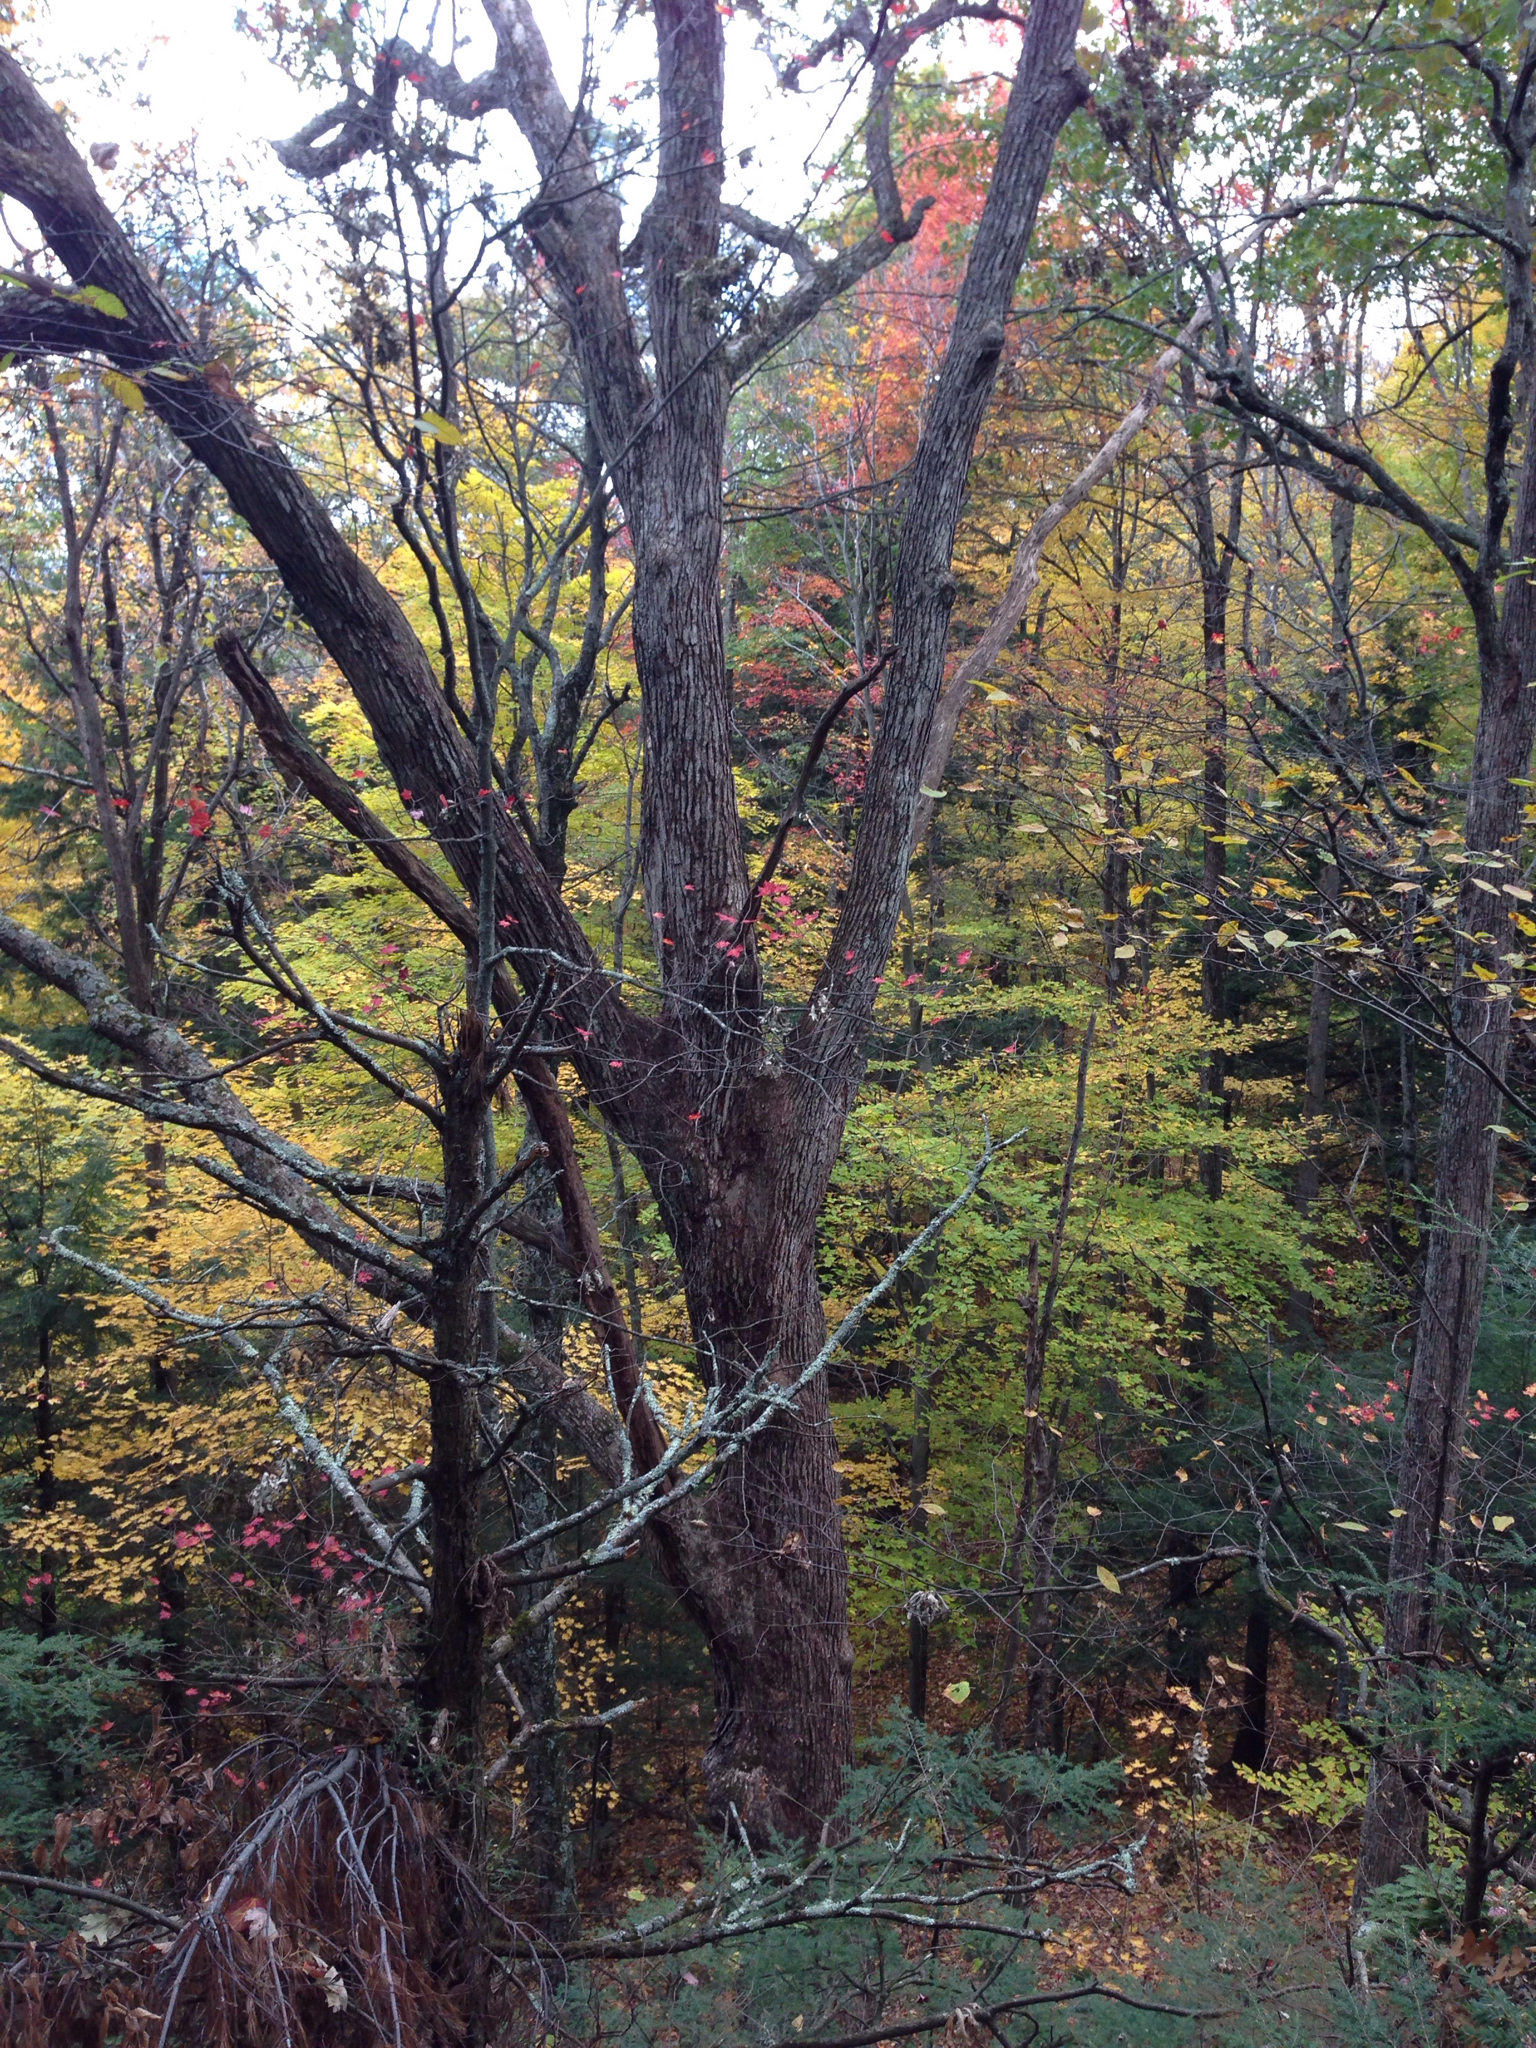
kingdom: Plantae
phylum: Tracheophyta
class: Magnoliopsida
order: Fagales
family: Fagaceae
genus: Quercus
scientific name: Quercus alba
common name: White oak
